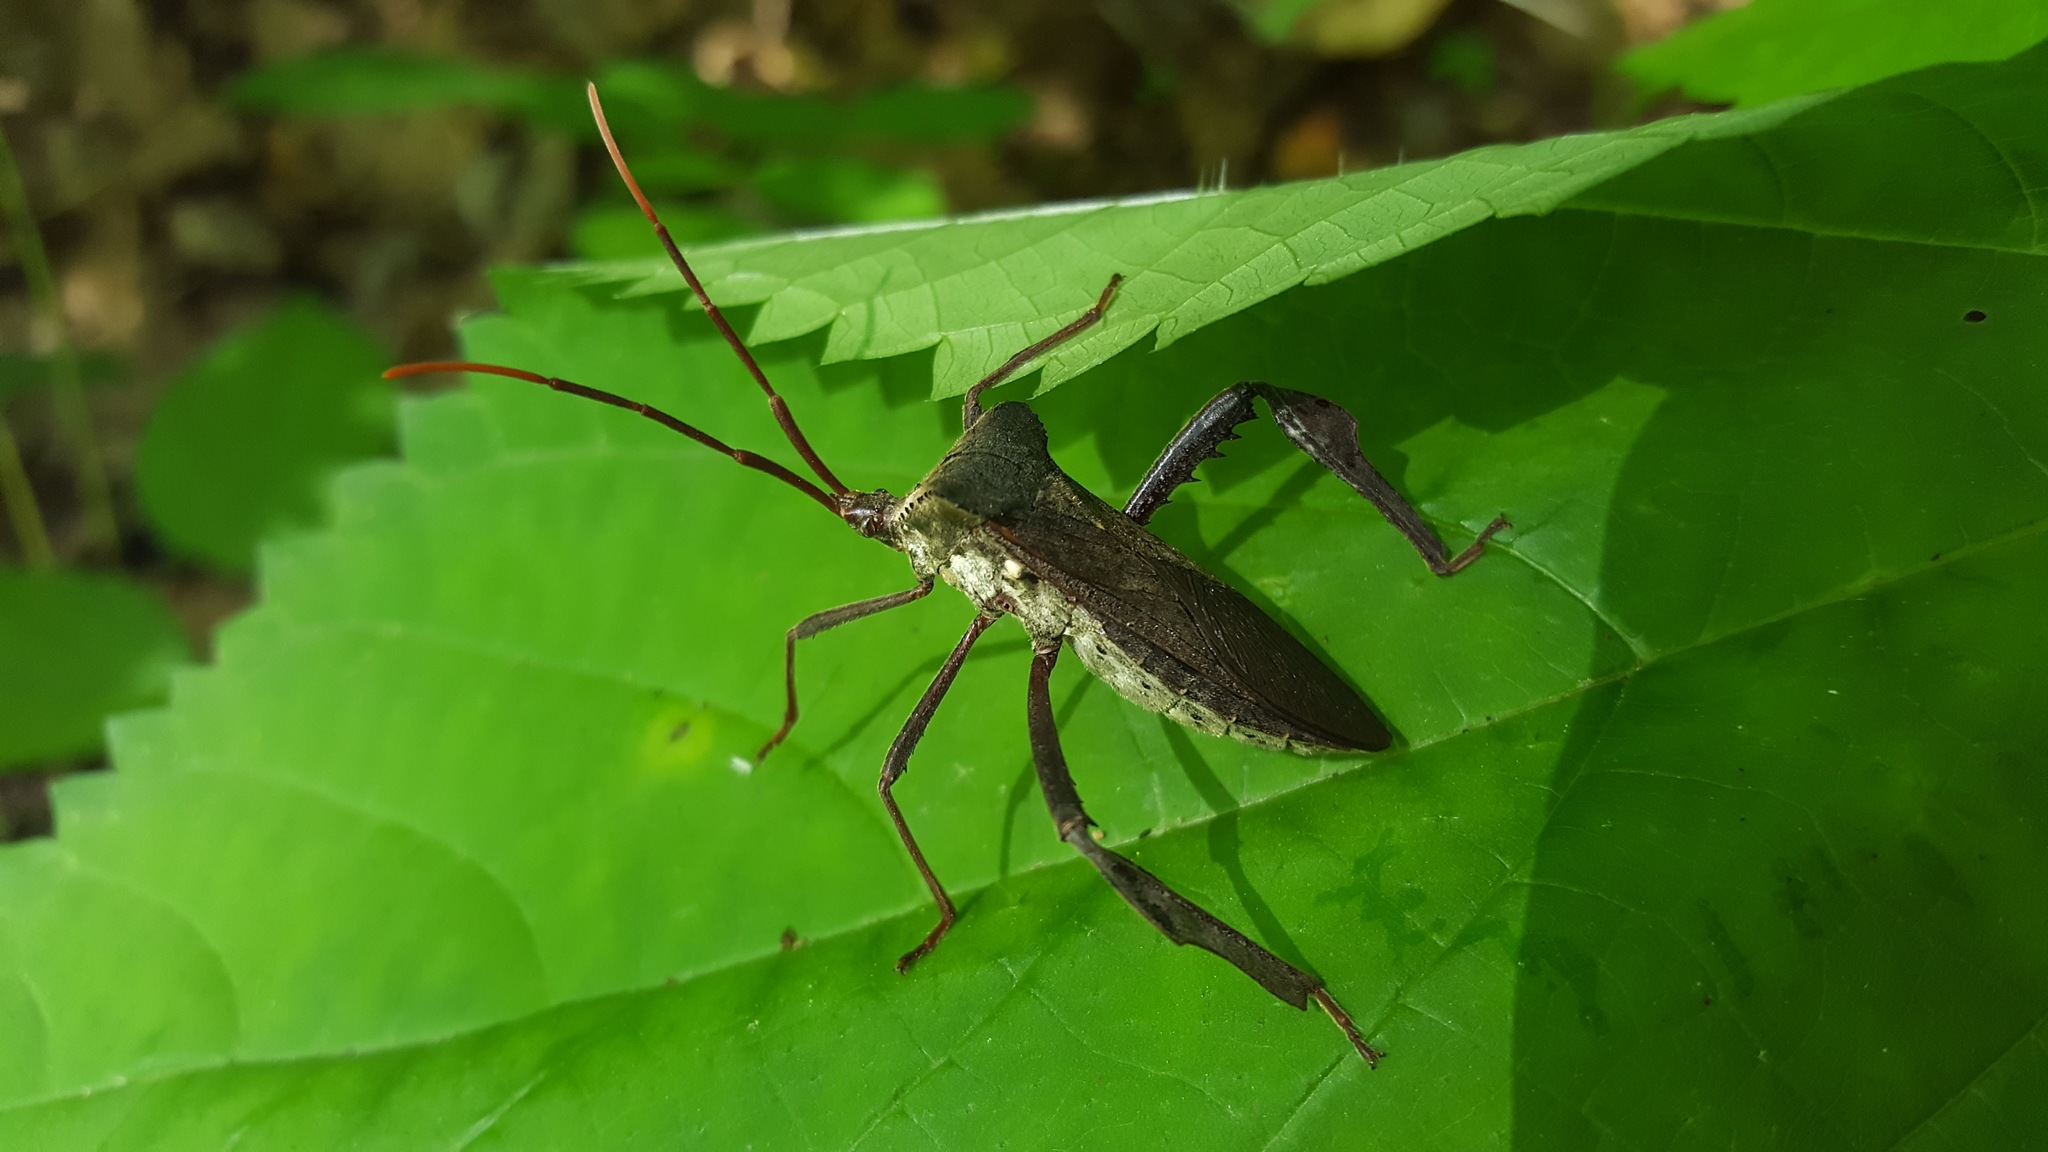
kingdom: Animalia
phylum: Arthropoda
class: Insecta
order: Hemiptera
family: Coreidae
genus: Acanthocephala
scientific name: Acanthocephala declivis
